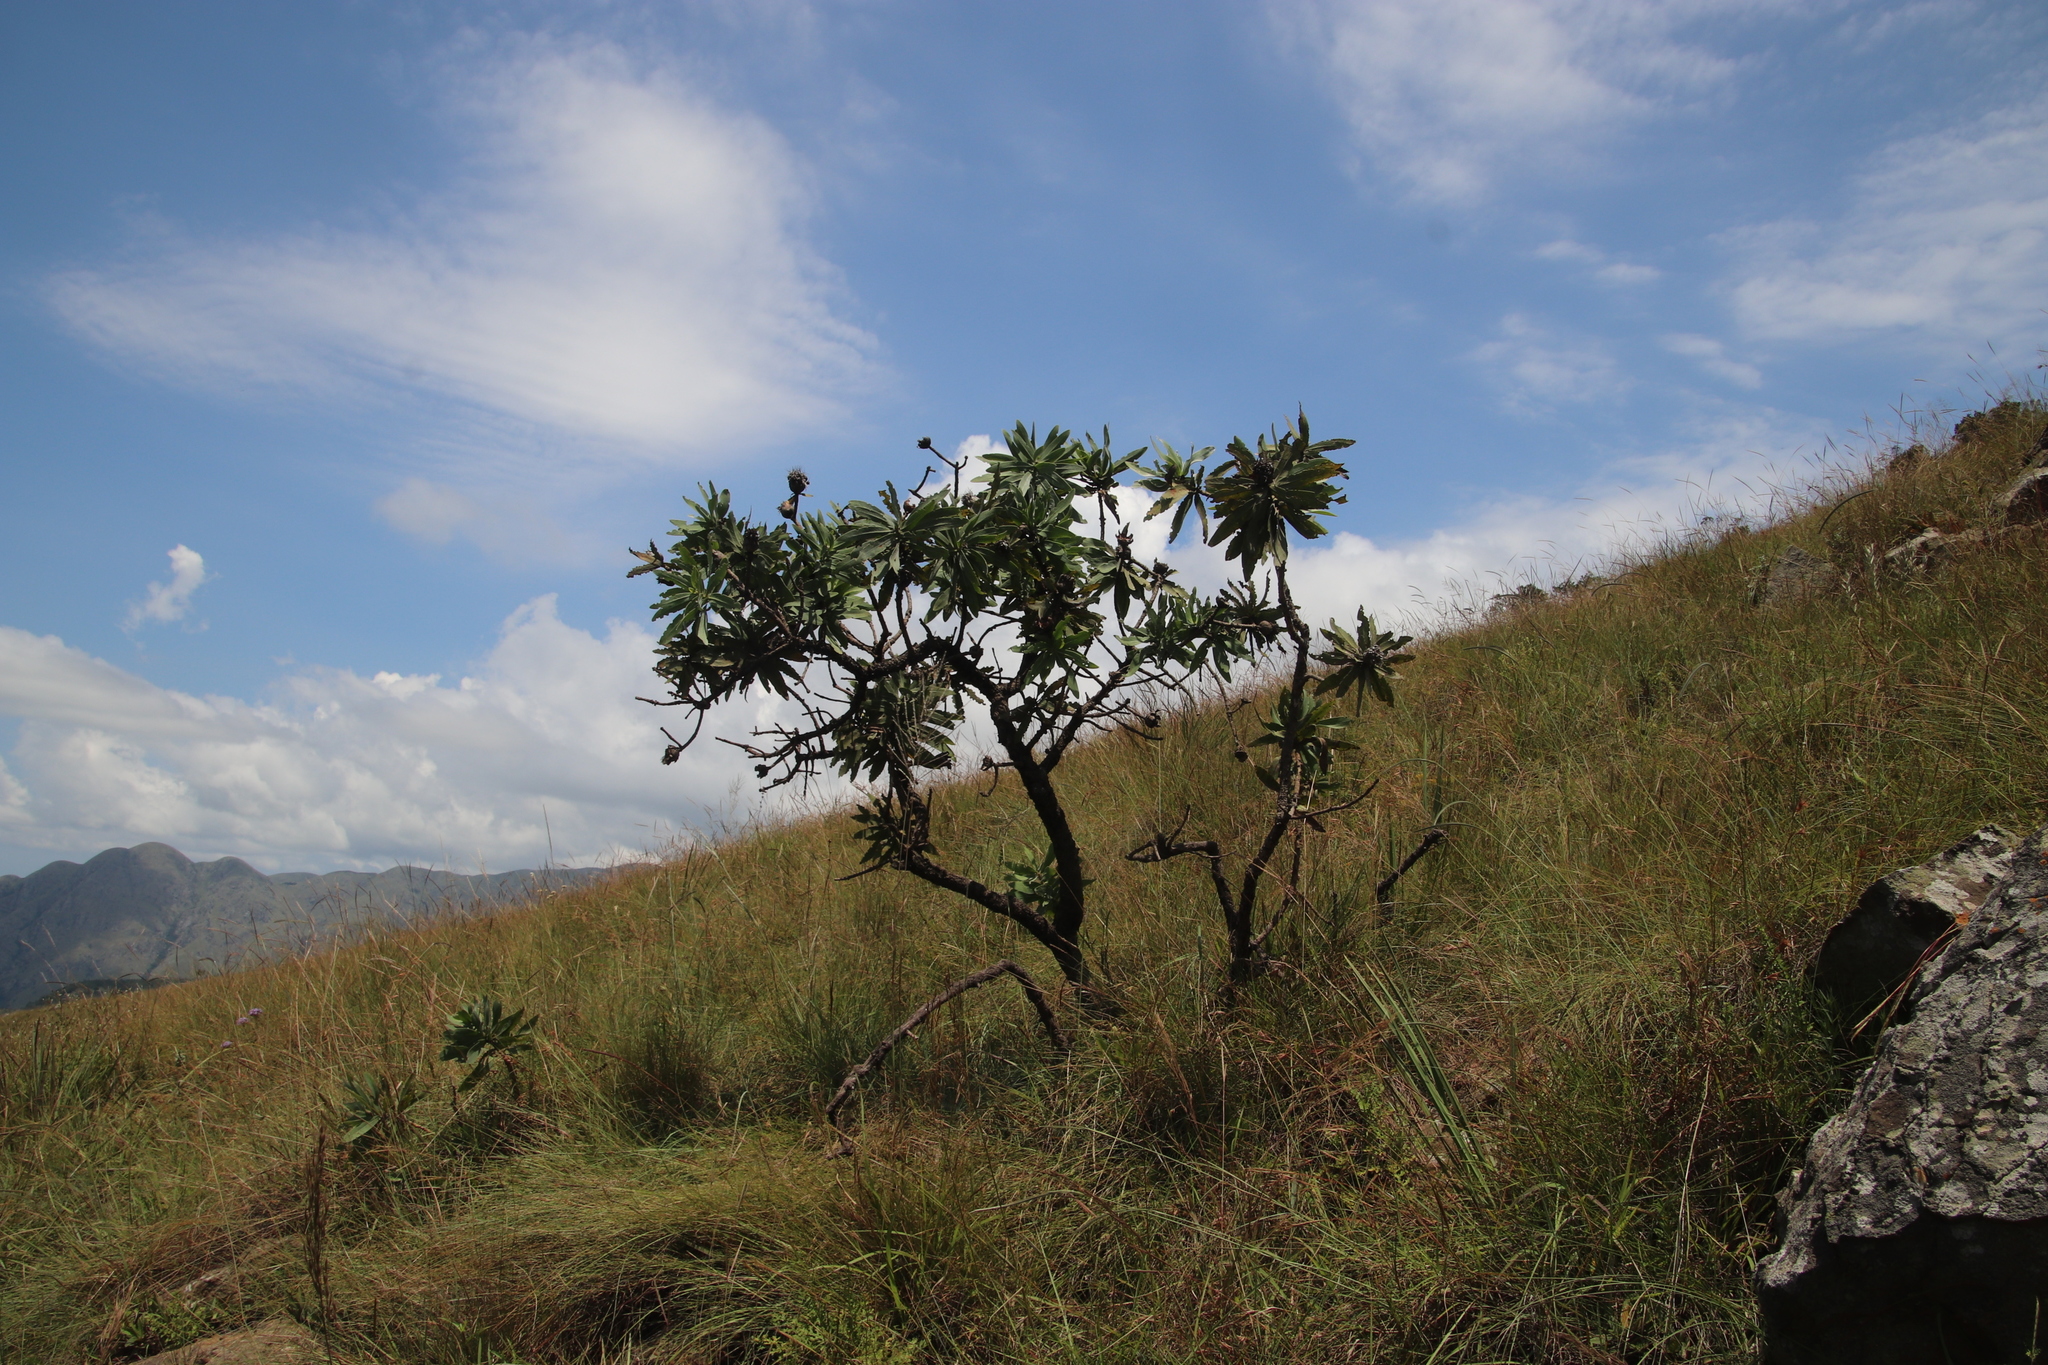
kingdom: Plantae
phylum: Tracheophyta
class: Magnoliopsida
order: Proteales
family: Proteaceae
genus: Protea
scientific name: Protea gaguedi
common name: African protea
